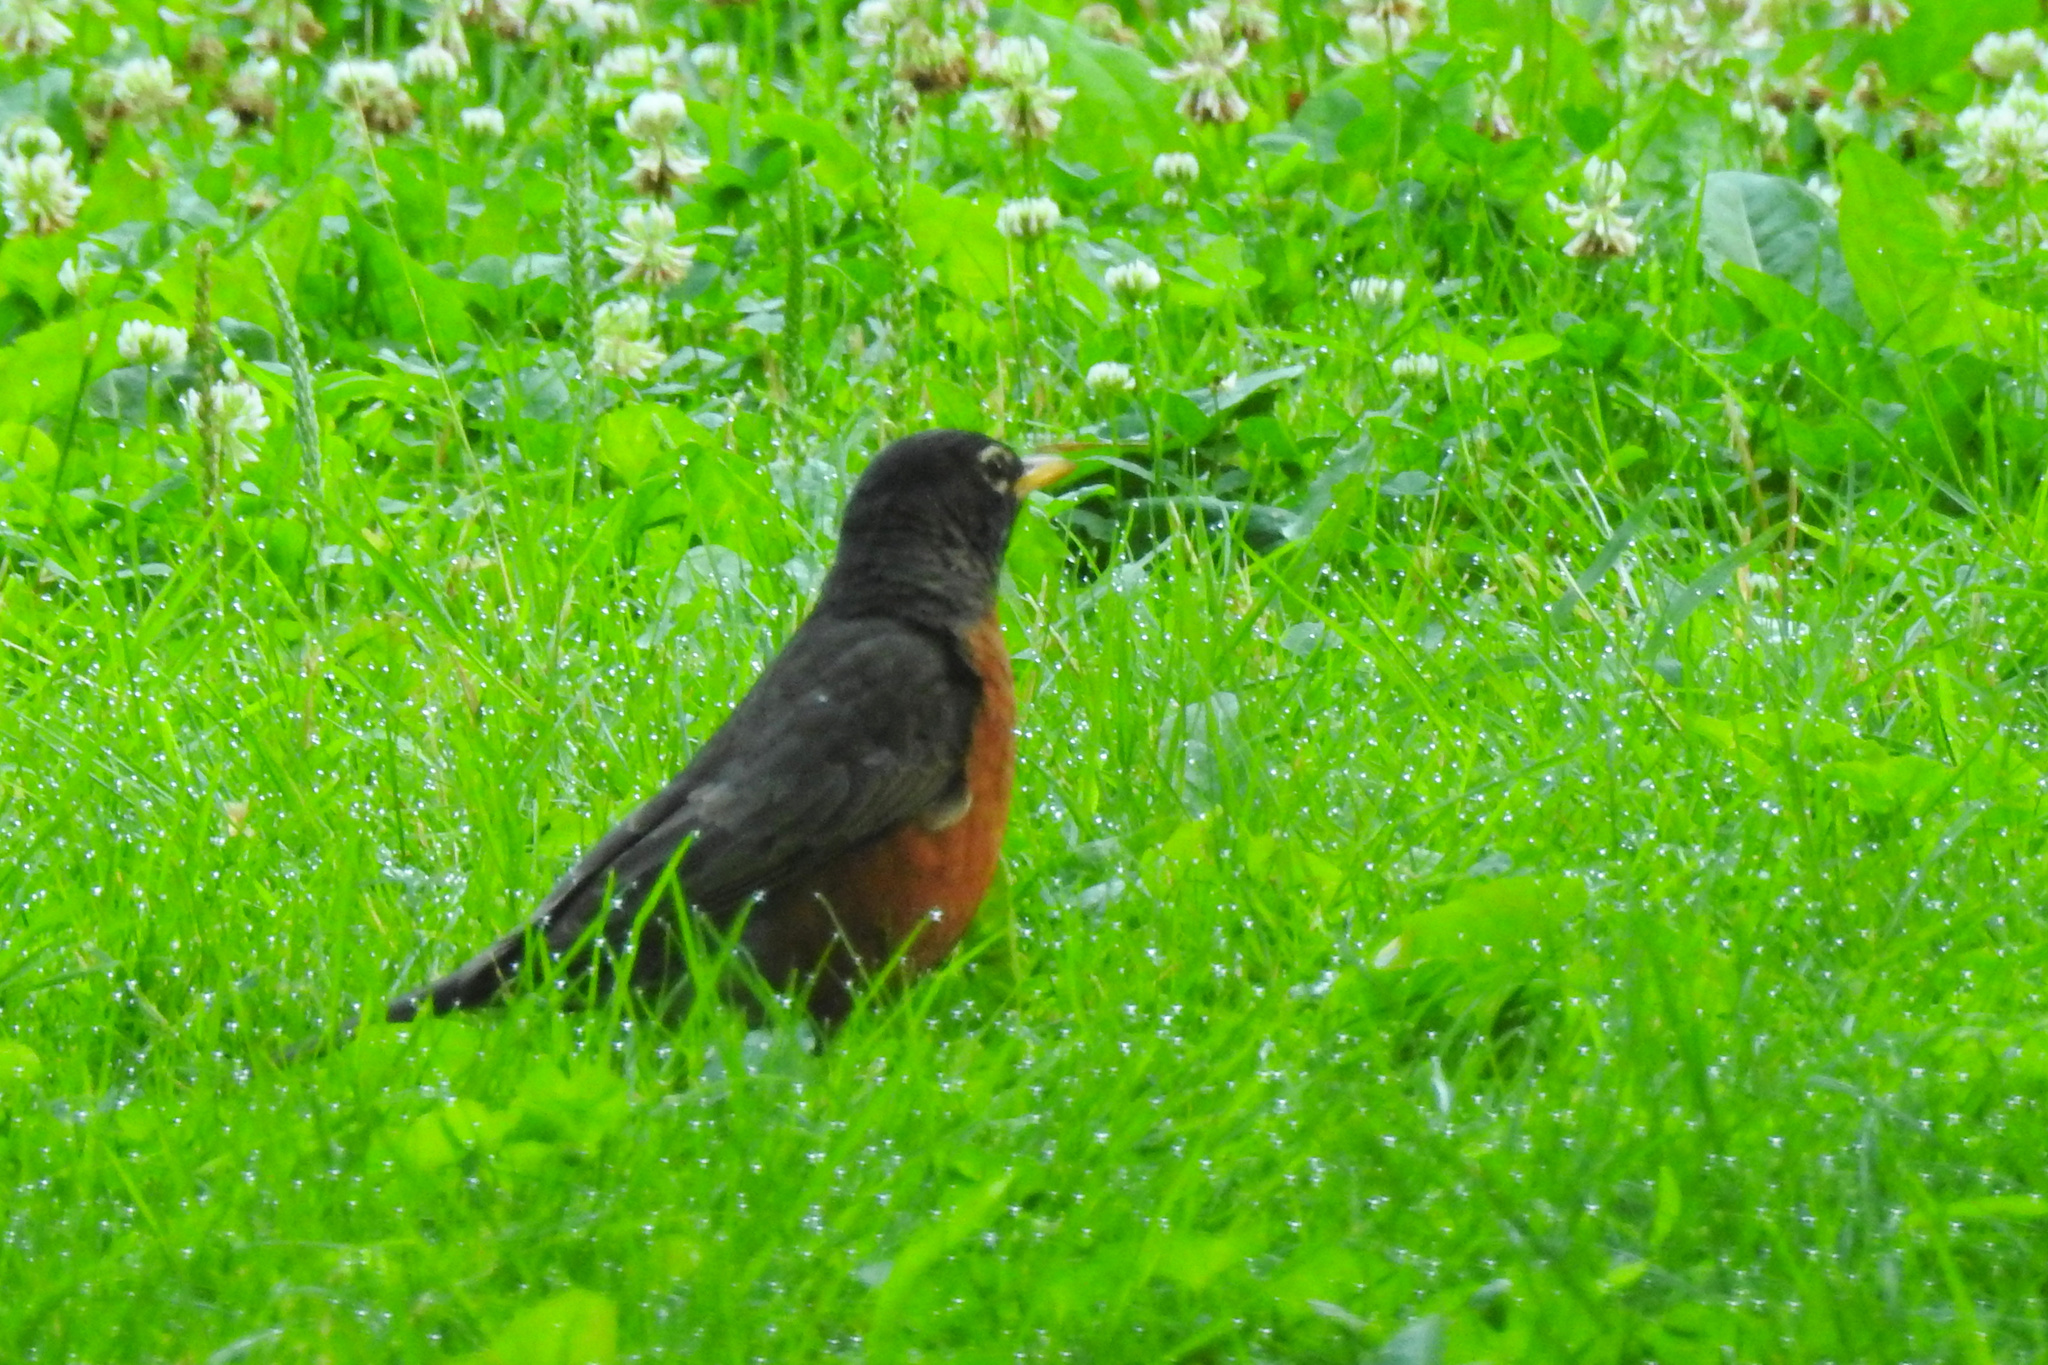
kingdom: Animalia
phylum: Chordata
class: Aves
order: Passeriformes
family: Turdidae
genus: Turdus
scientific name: Turdus migratorius
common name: American robin
